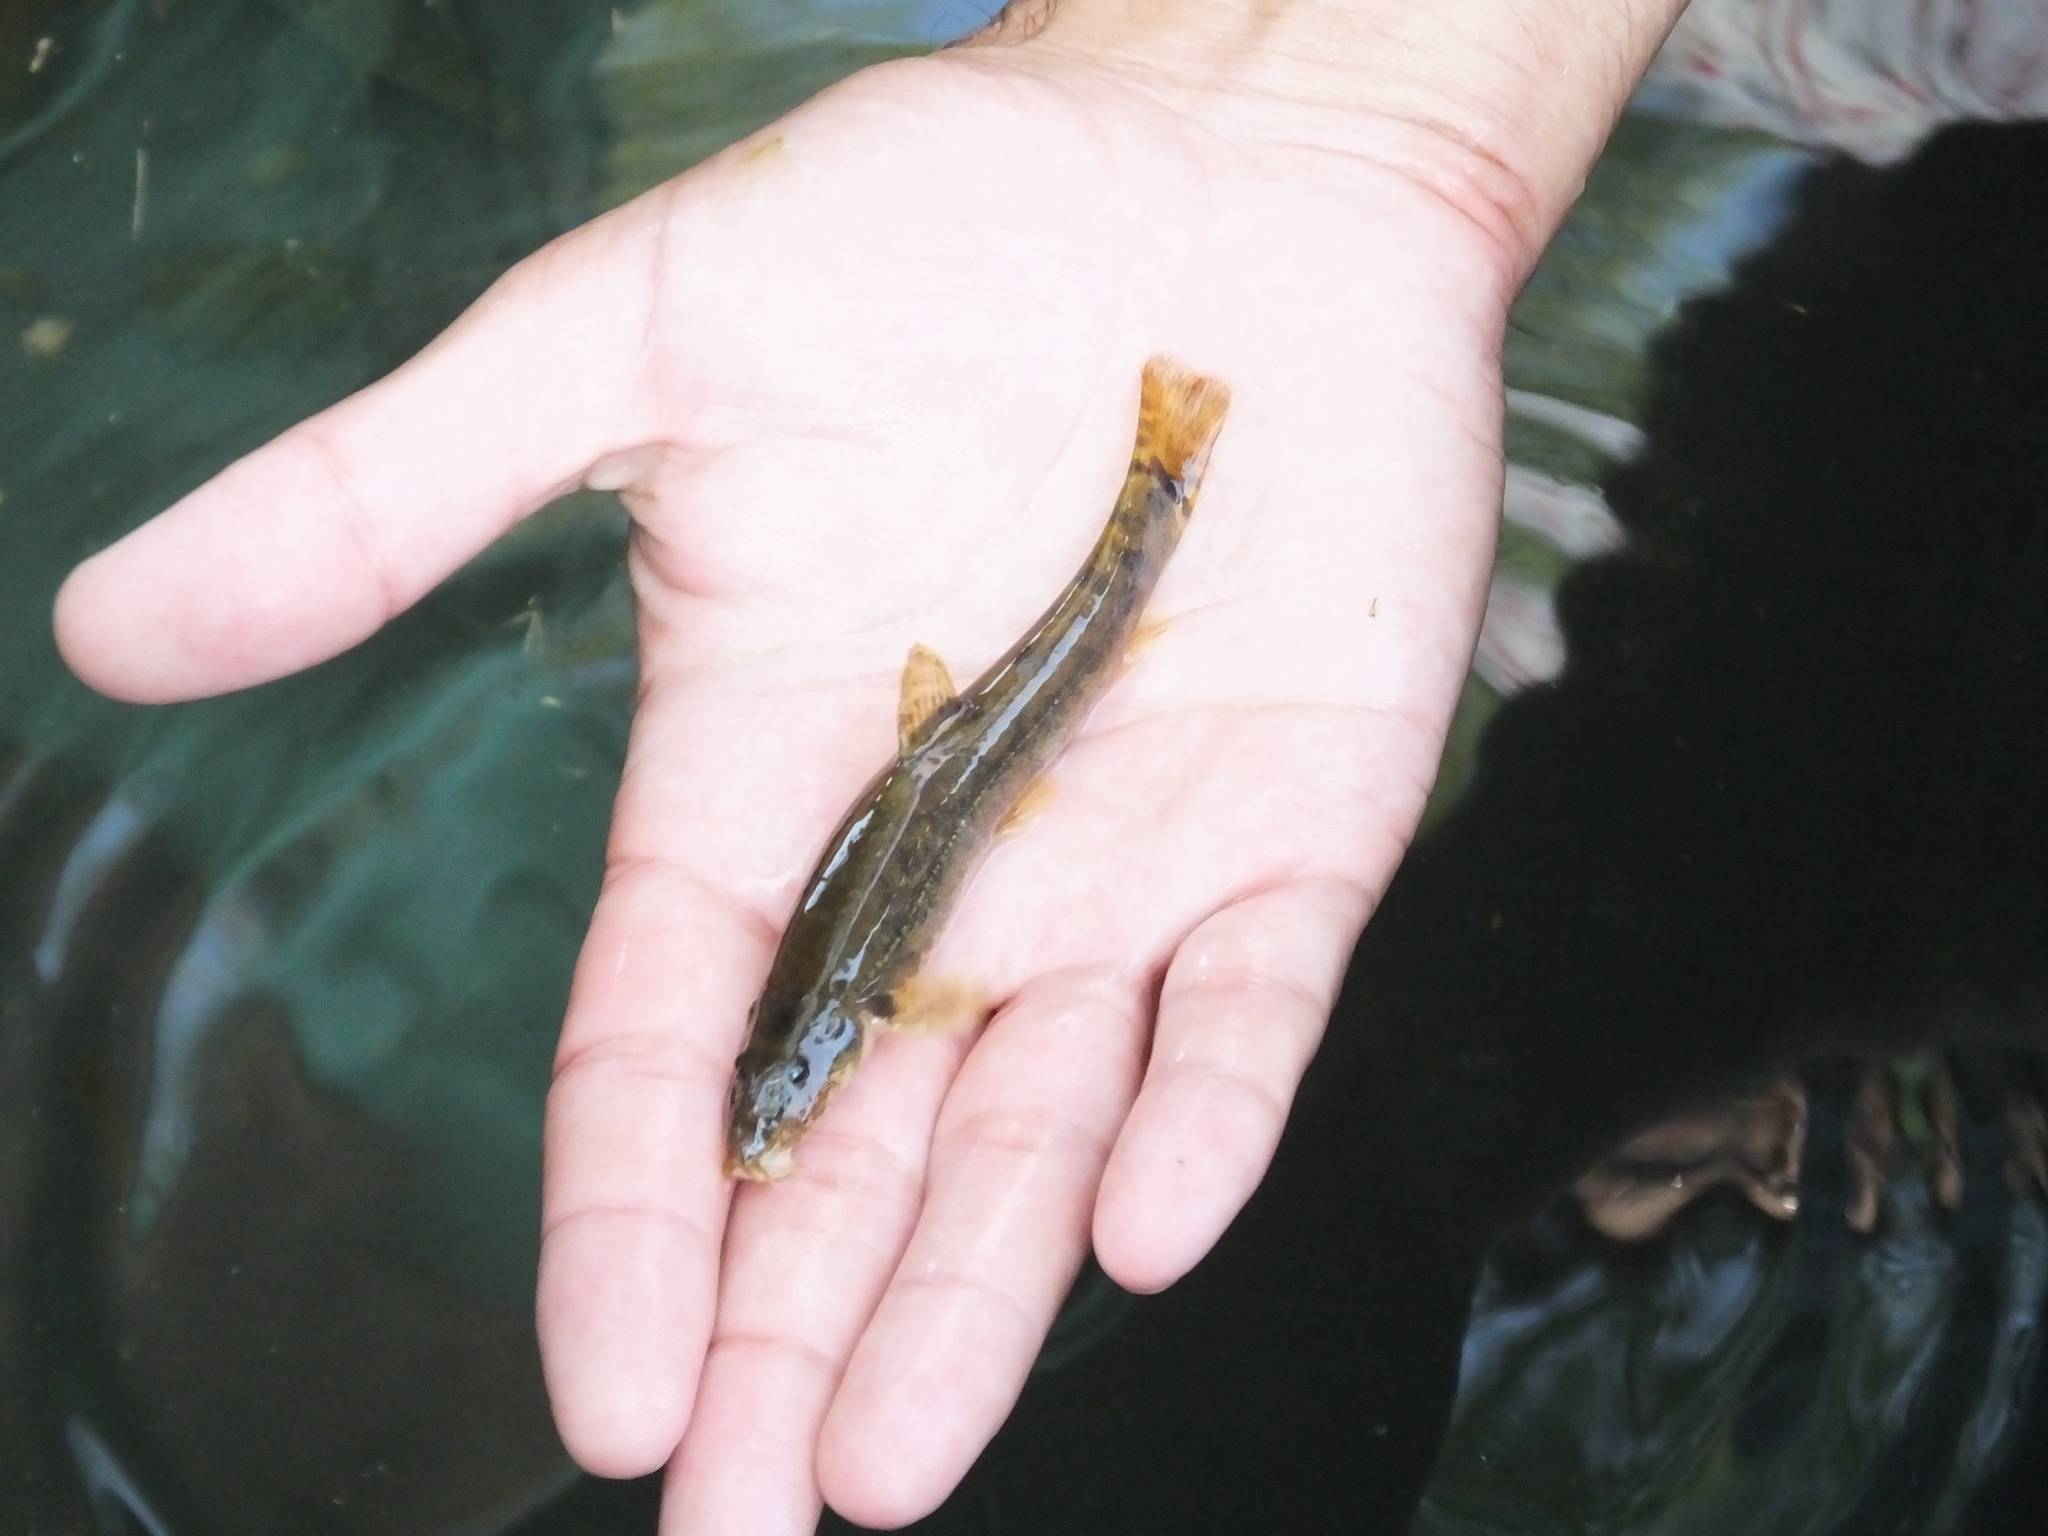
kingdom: Animalia
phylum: Chordata
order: Cypriniformes
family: Nemacheilidae
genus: Barbatula
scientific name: Barbatula barbatula
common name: Stone loach
